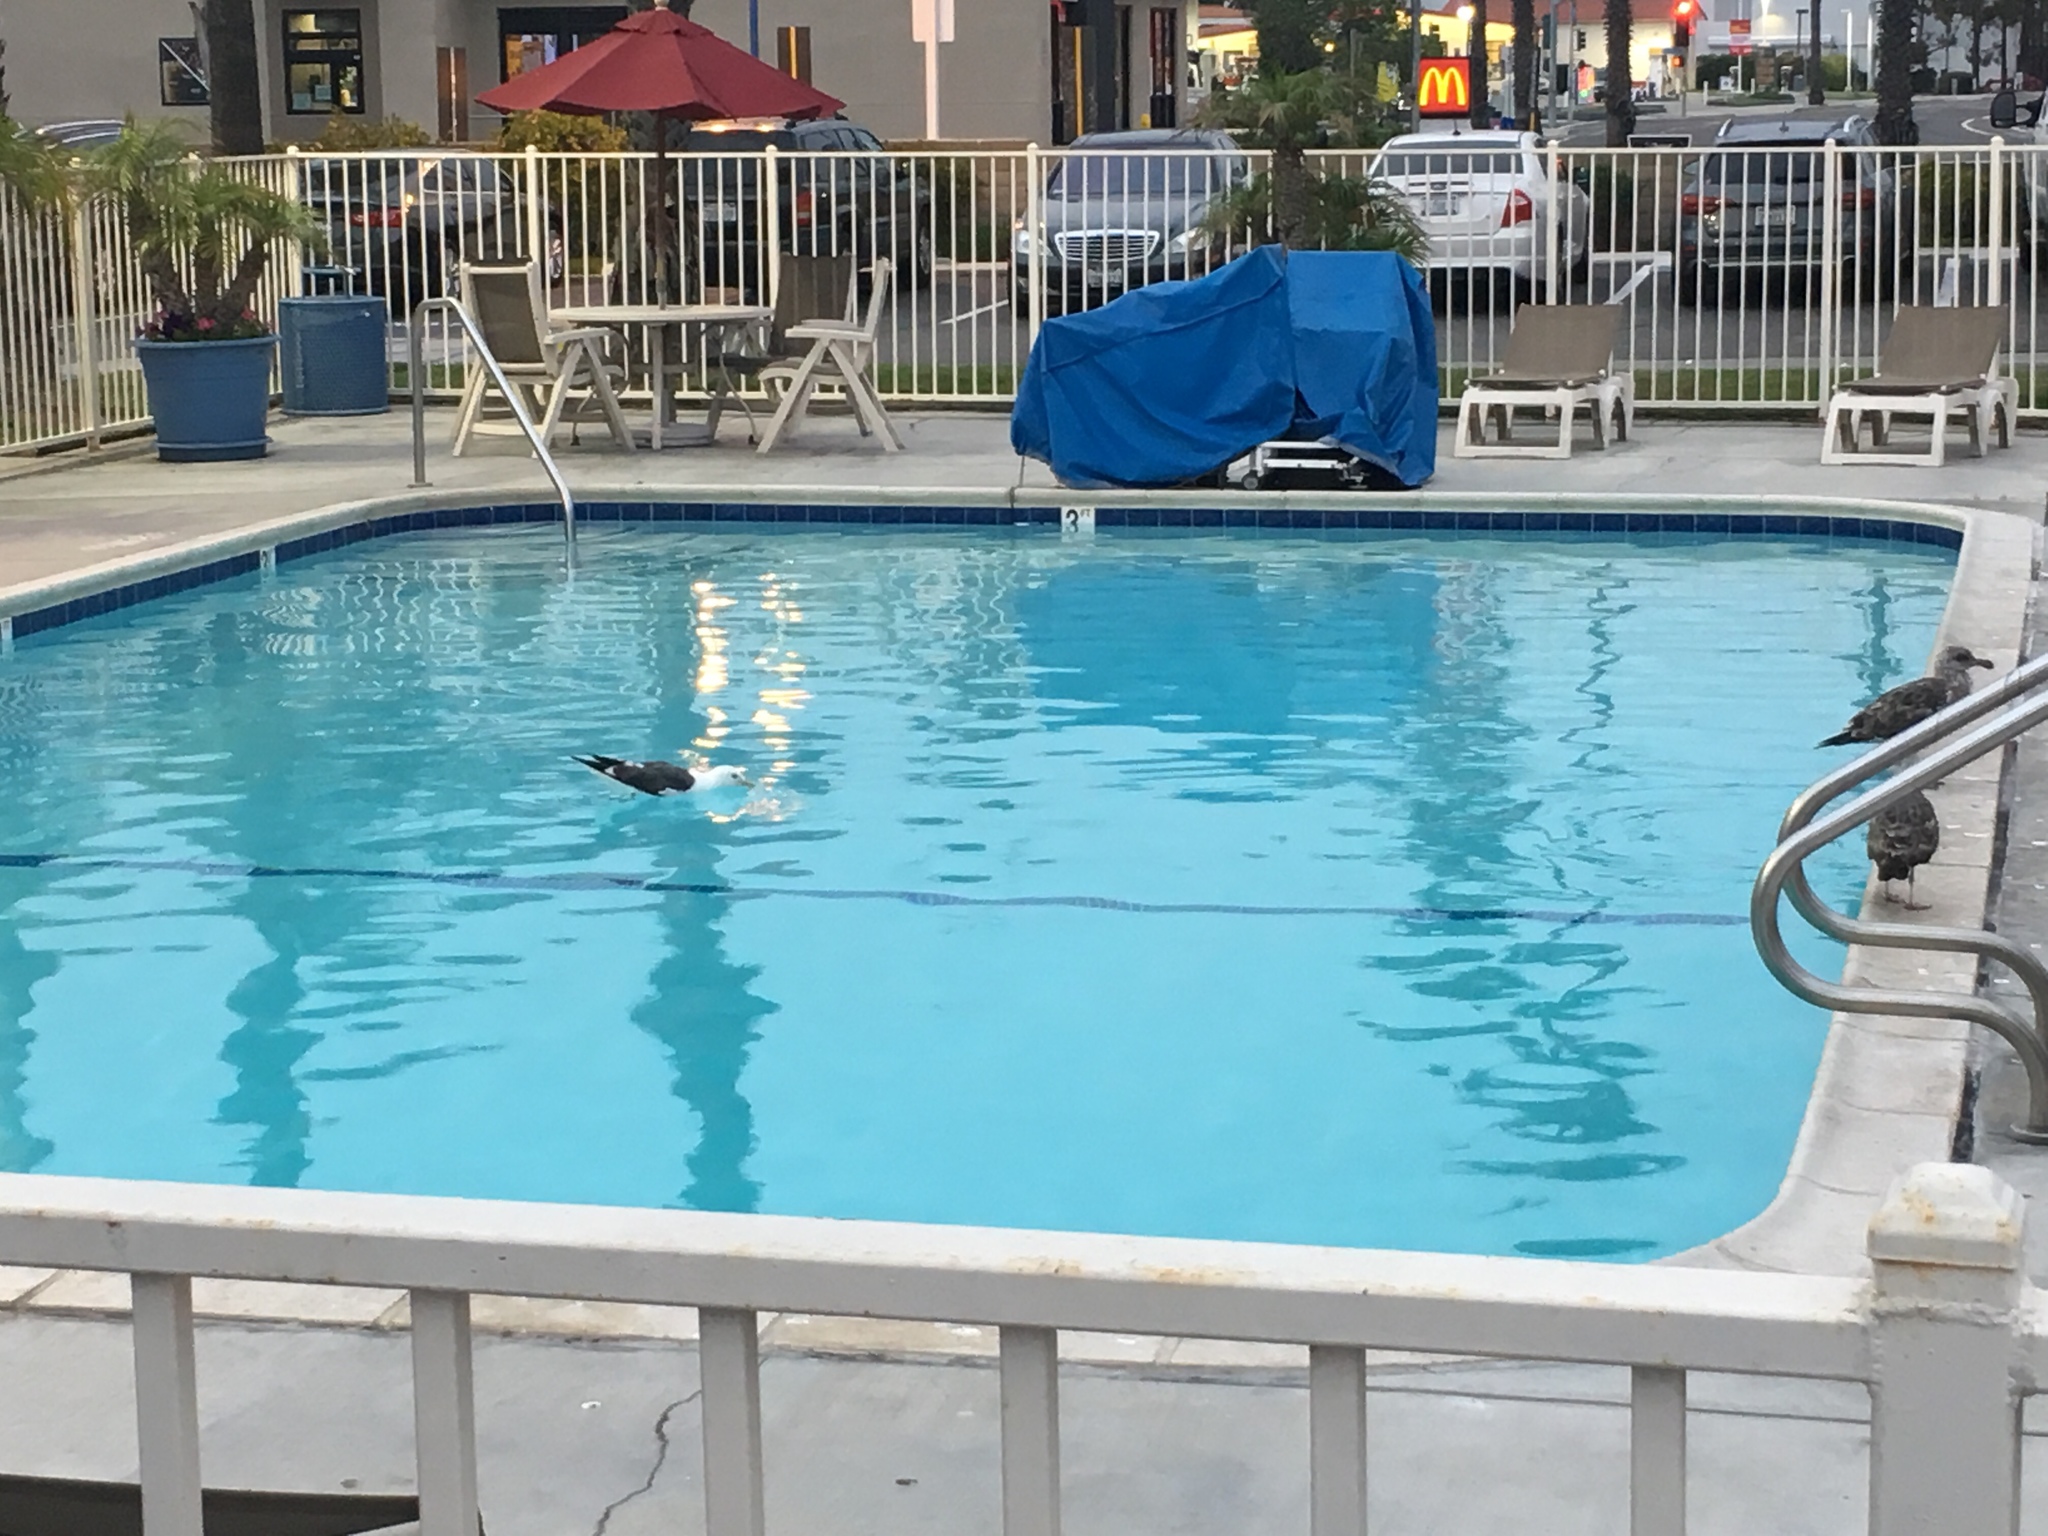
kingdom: Animalia
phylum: Chordata
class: Aves
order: Charadriiformes
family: Laridae
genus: Larus
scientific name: Larus occidentalis
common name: Western gull
